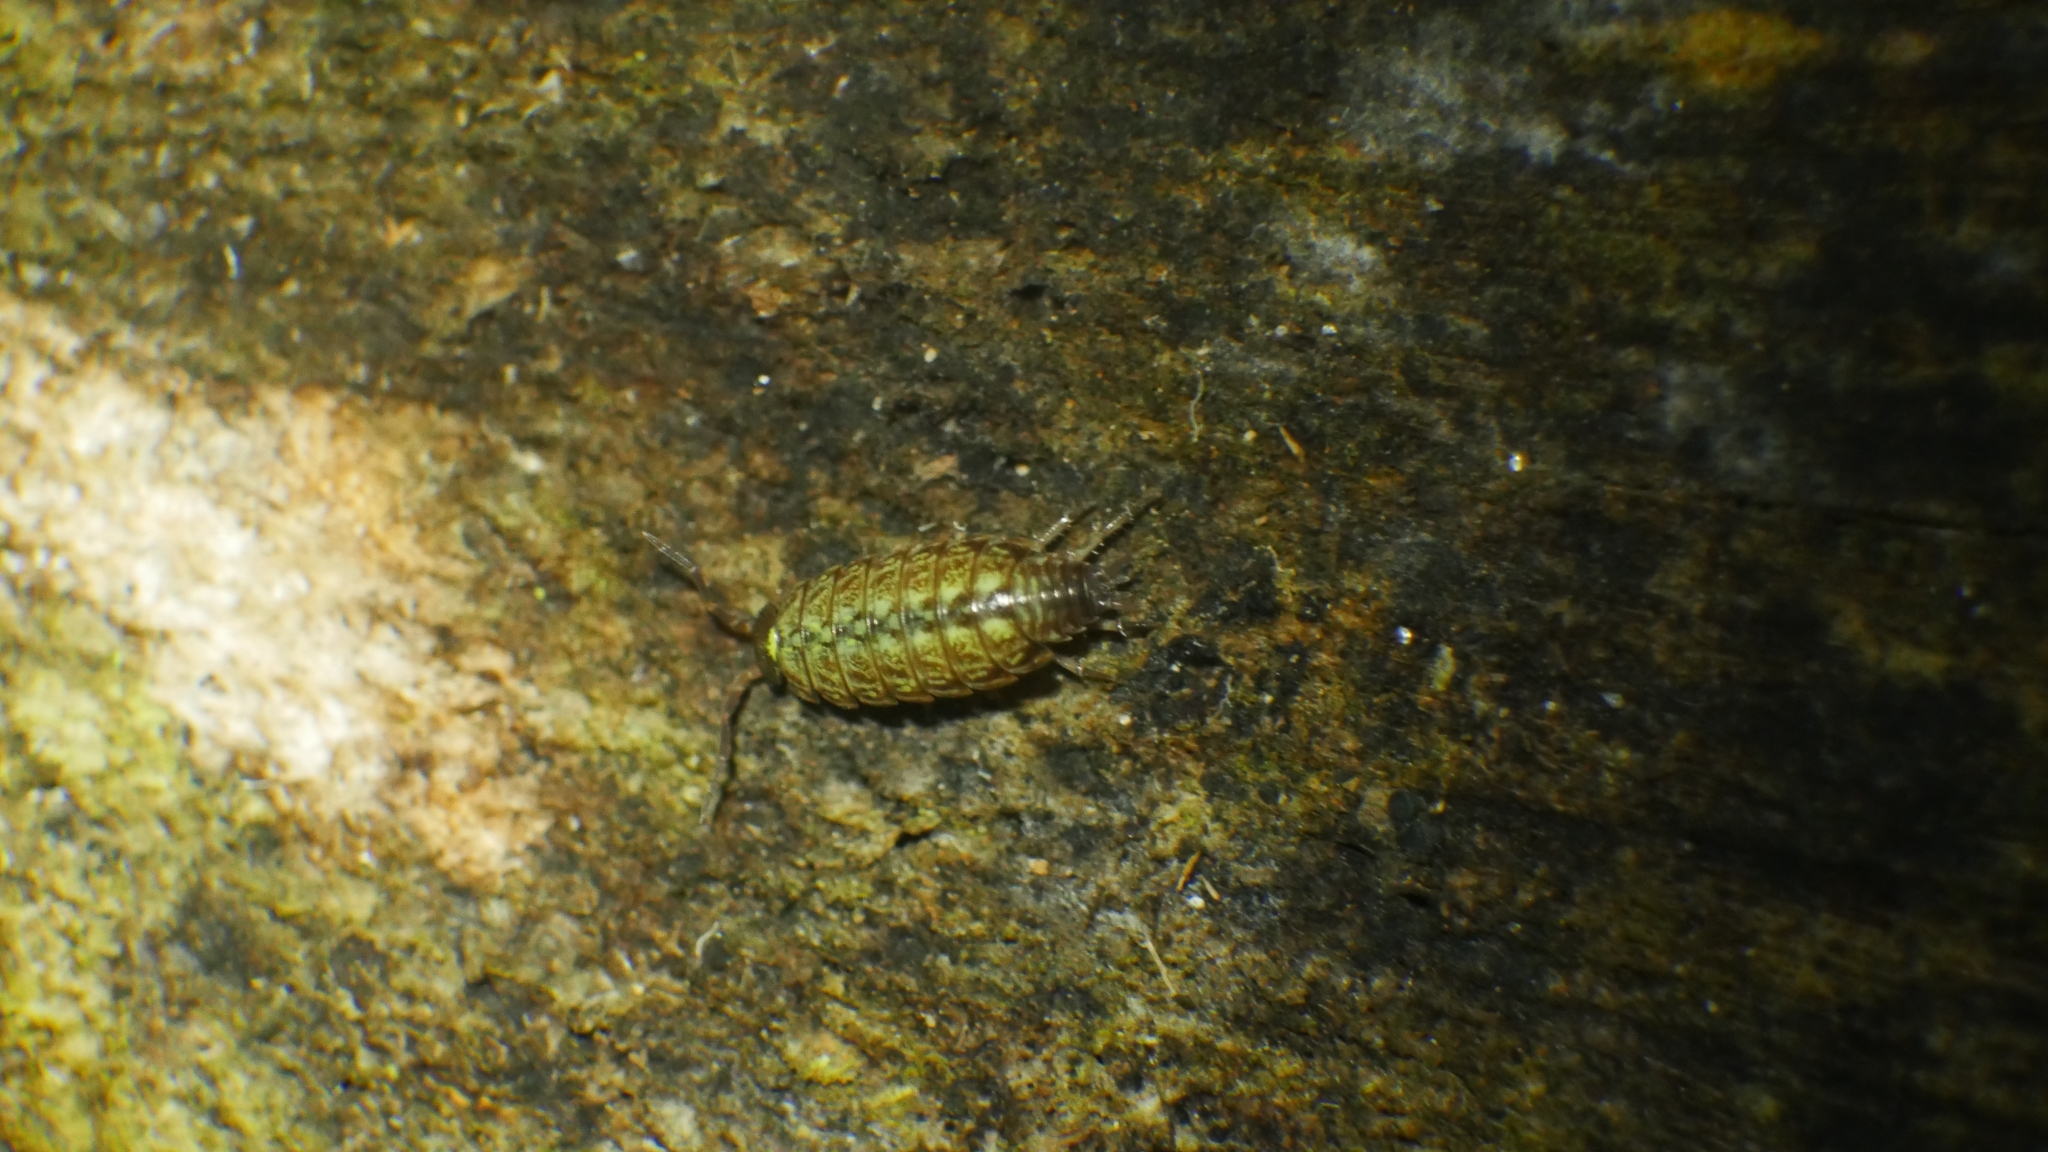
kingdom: Animalia
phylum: Arthropoda
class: Malacostraca
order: Isopoda
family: Philosciidae
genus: Philoscia
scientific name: Philoscia muscorum
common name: Common striped woodlouse
